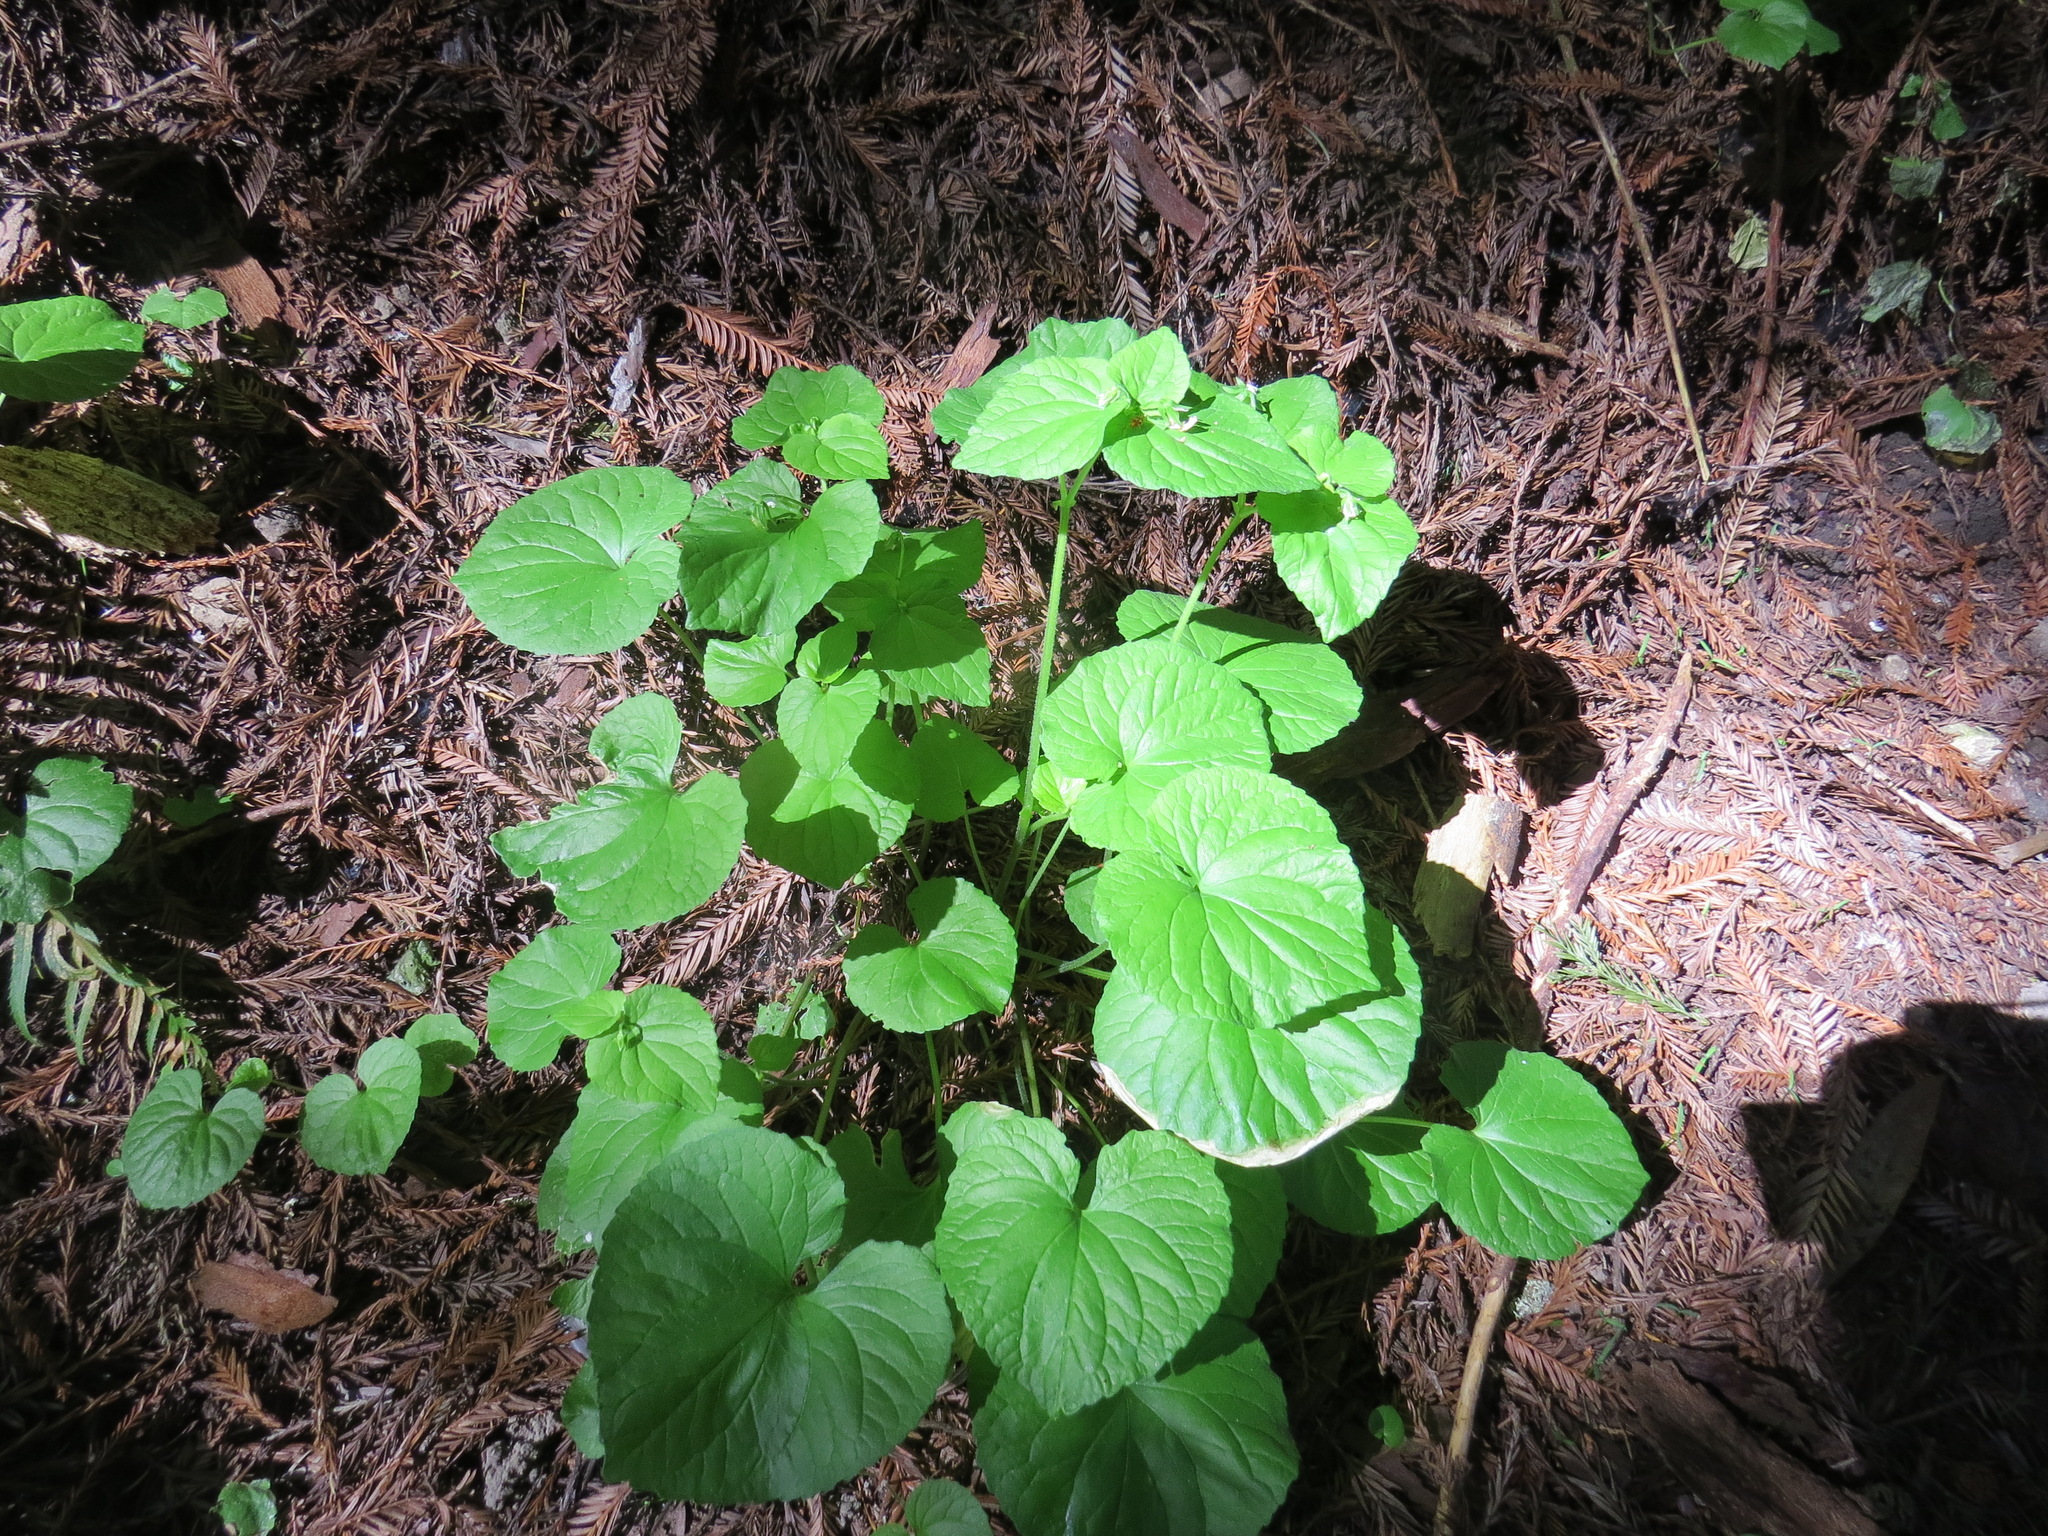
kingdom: Plantae
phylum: Tracheophyta
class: Magnoliopsida
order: Malpighiales
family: Violaceae
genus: Viola
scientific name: Viola glabella
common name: Stream violet
